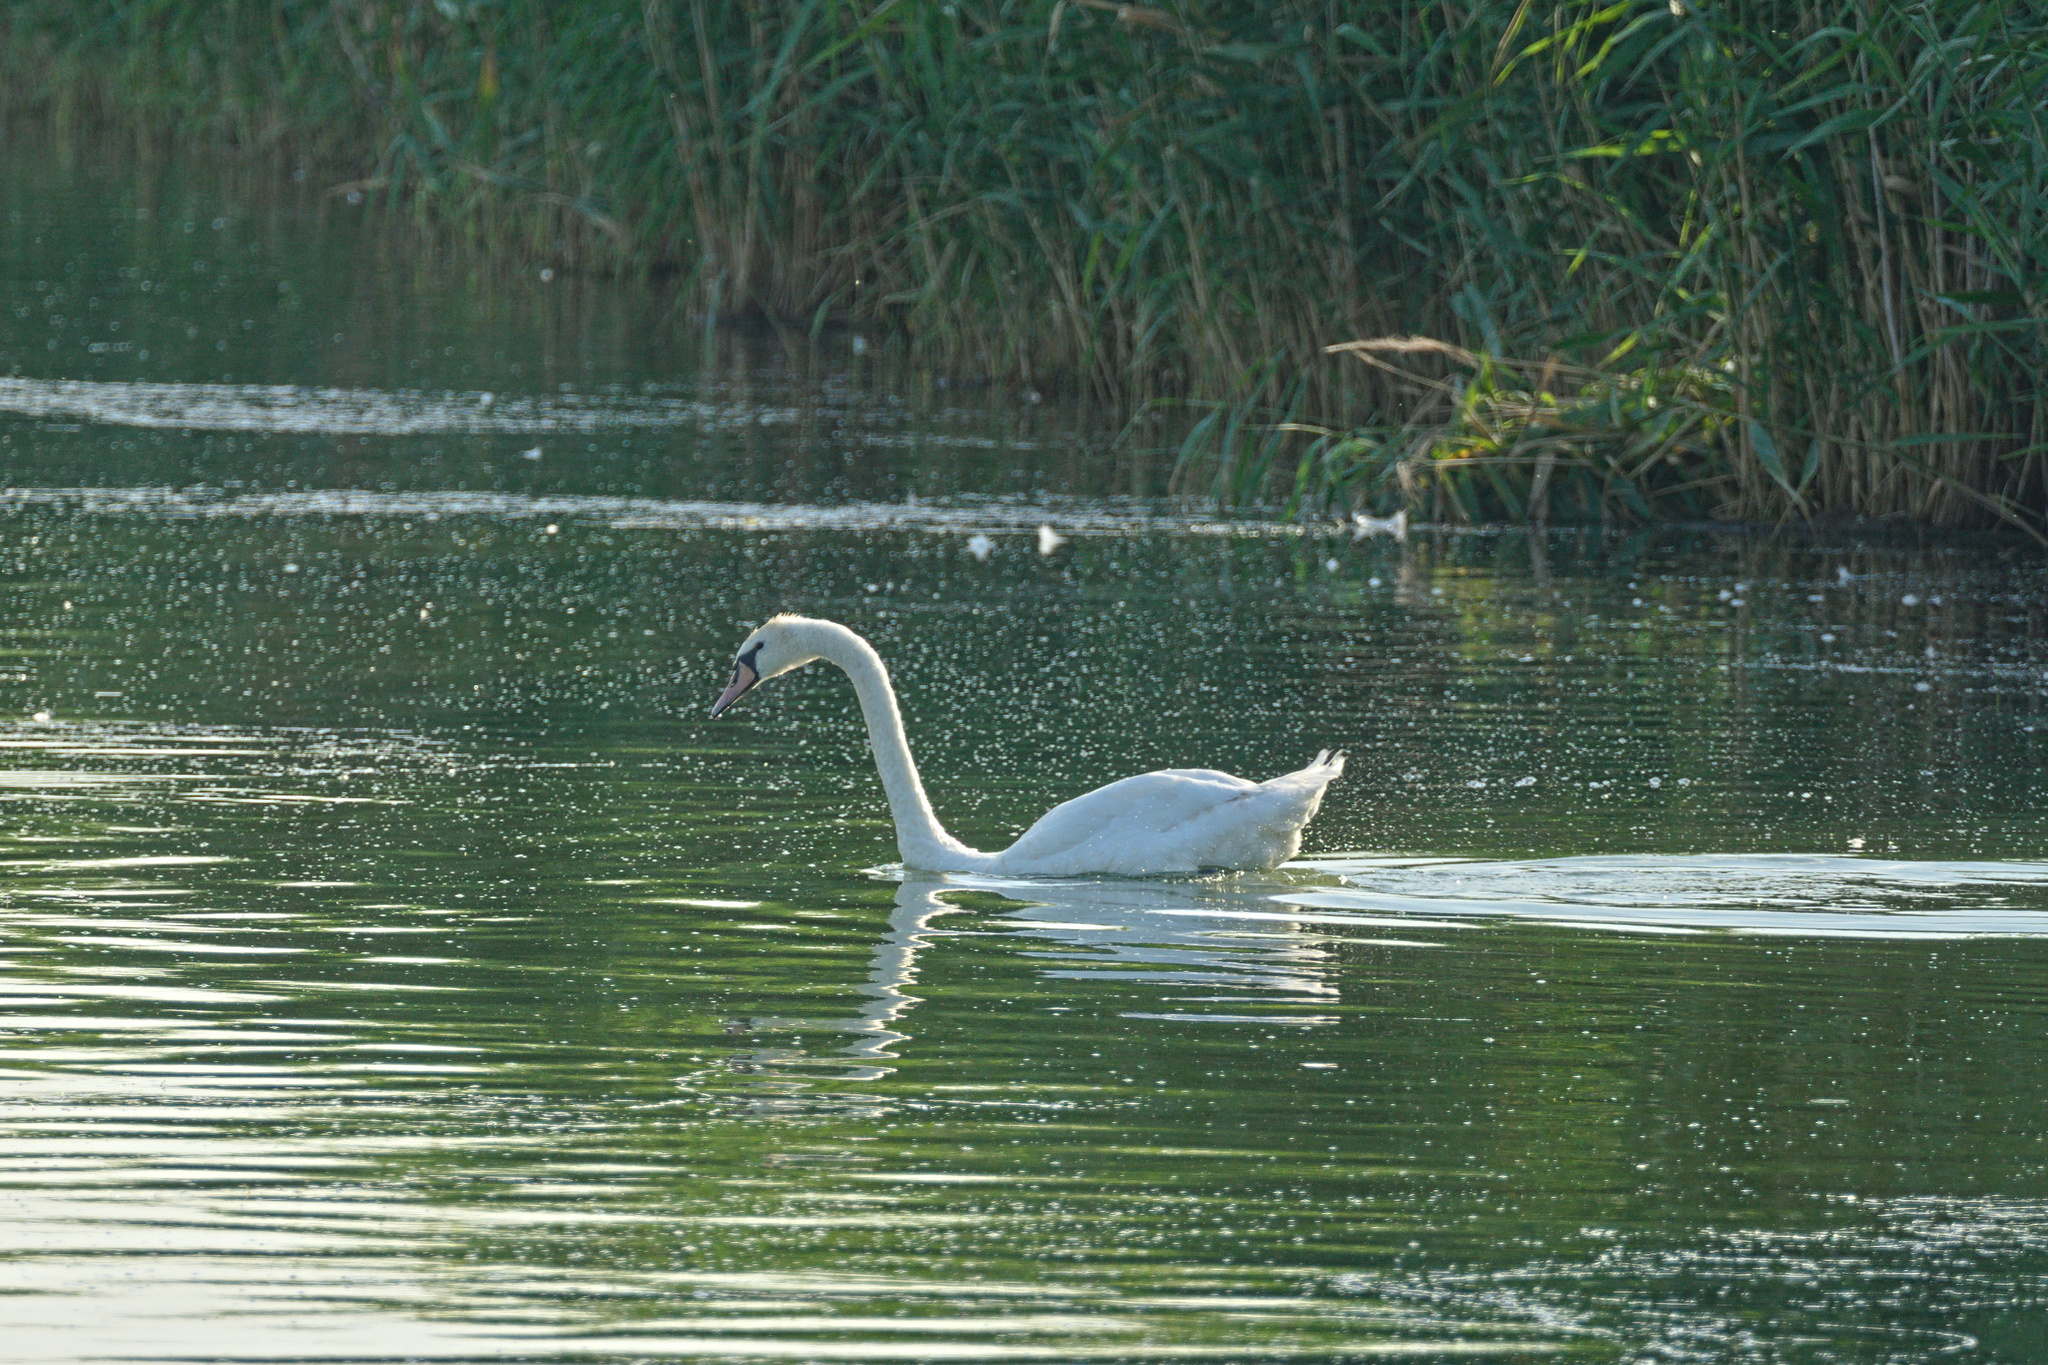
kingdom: Animalia
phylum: Chordata
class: Aves
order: Anseriformes
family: Anatidae
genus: Cygnus
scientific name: Cygnus olor
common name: Mute swan
